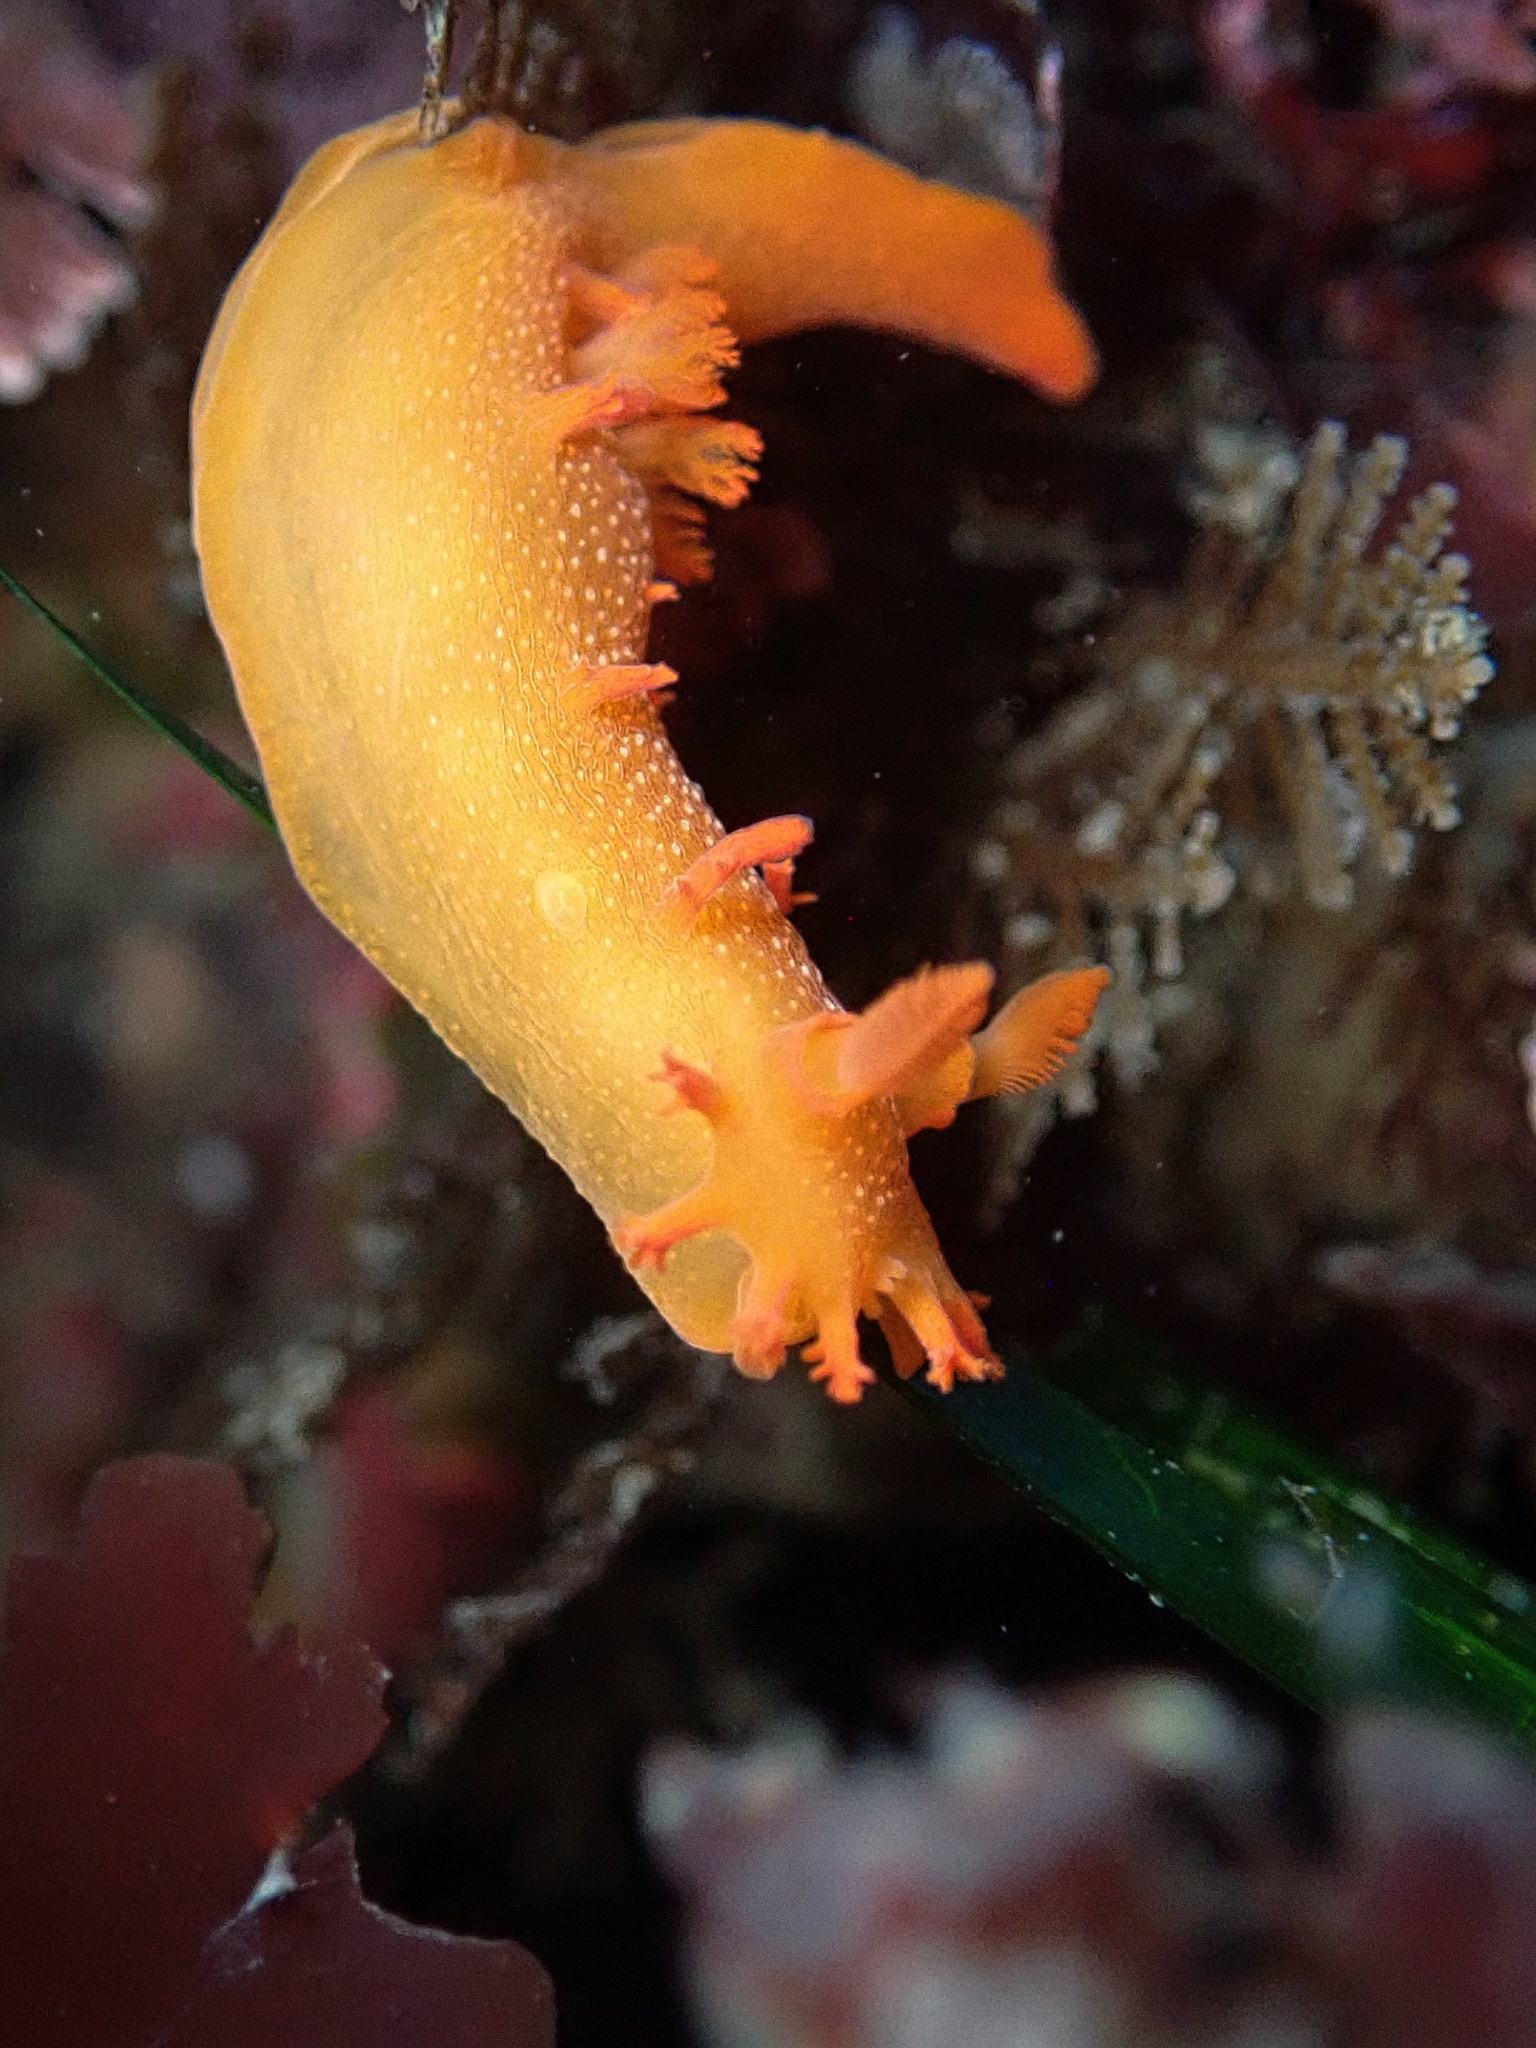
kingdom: Animalia
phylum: Mollusca
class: Gastropoda
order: Nudibranchia
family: Polyceridae
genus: Triopha
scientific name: Triopha maculata
